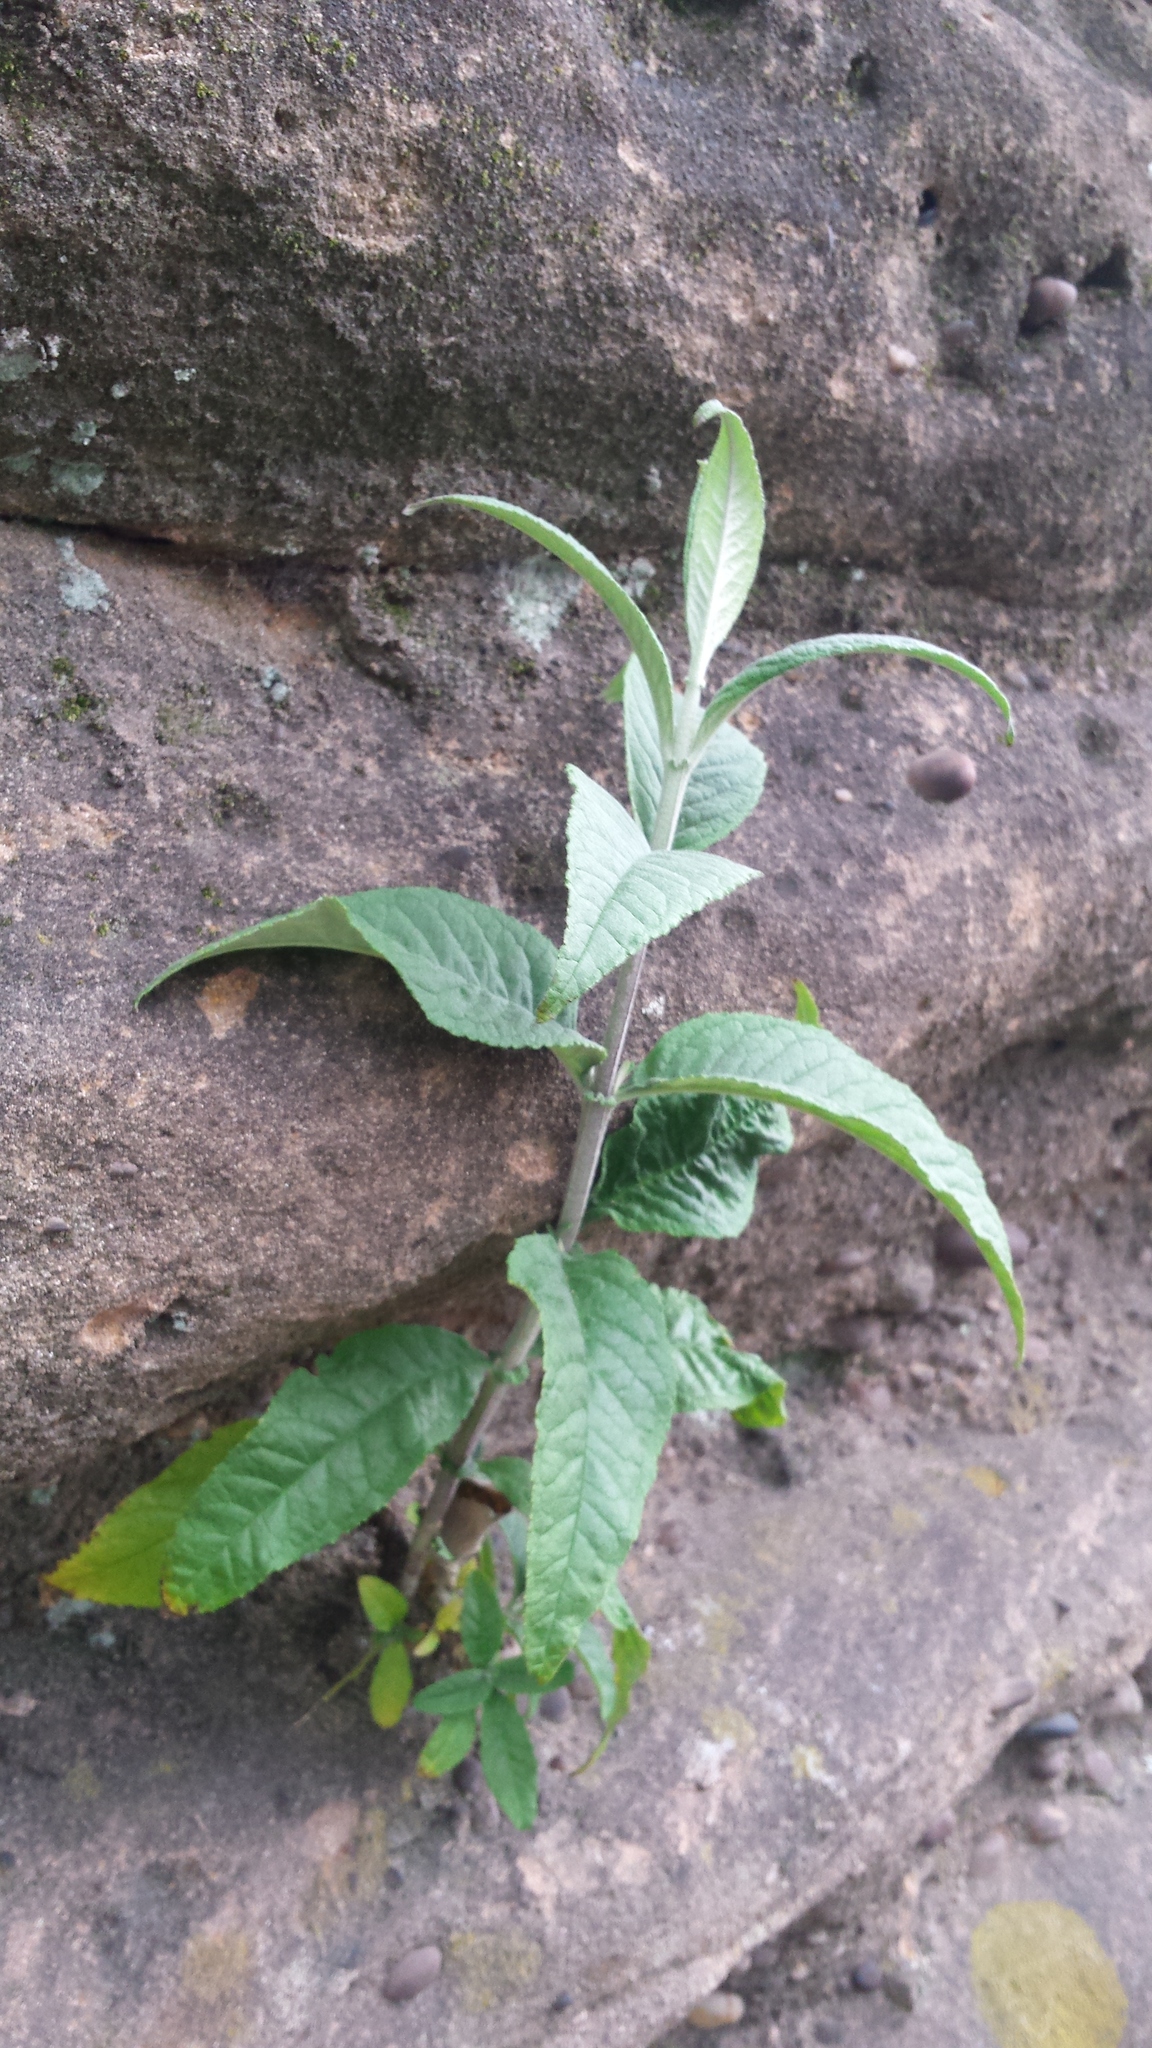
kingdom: Plantae
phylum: Tracheophyta
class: Magnoliopsida
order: Lamiales
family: Scrophulariaceae
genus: Buddleja
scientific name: Buddleja davidii
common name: Butterfly-bush
